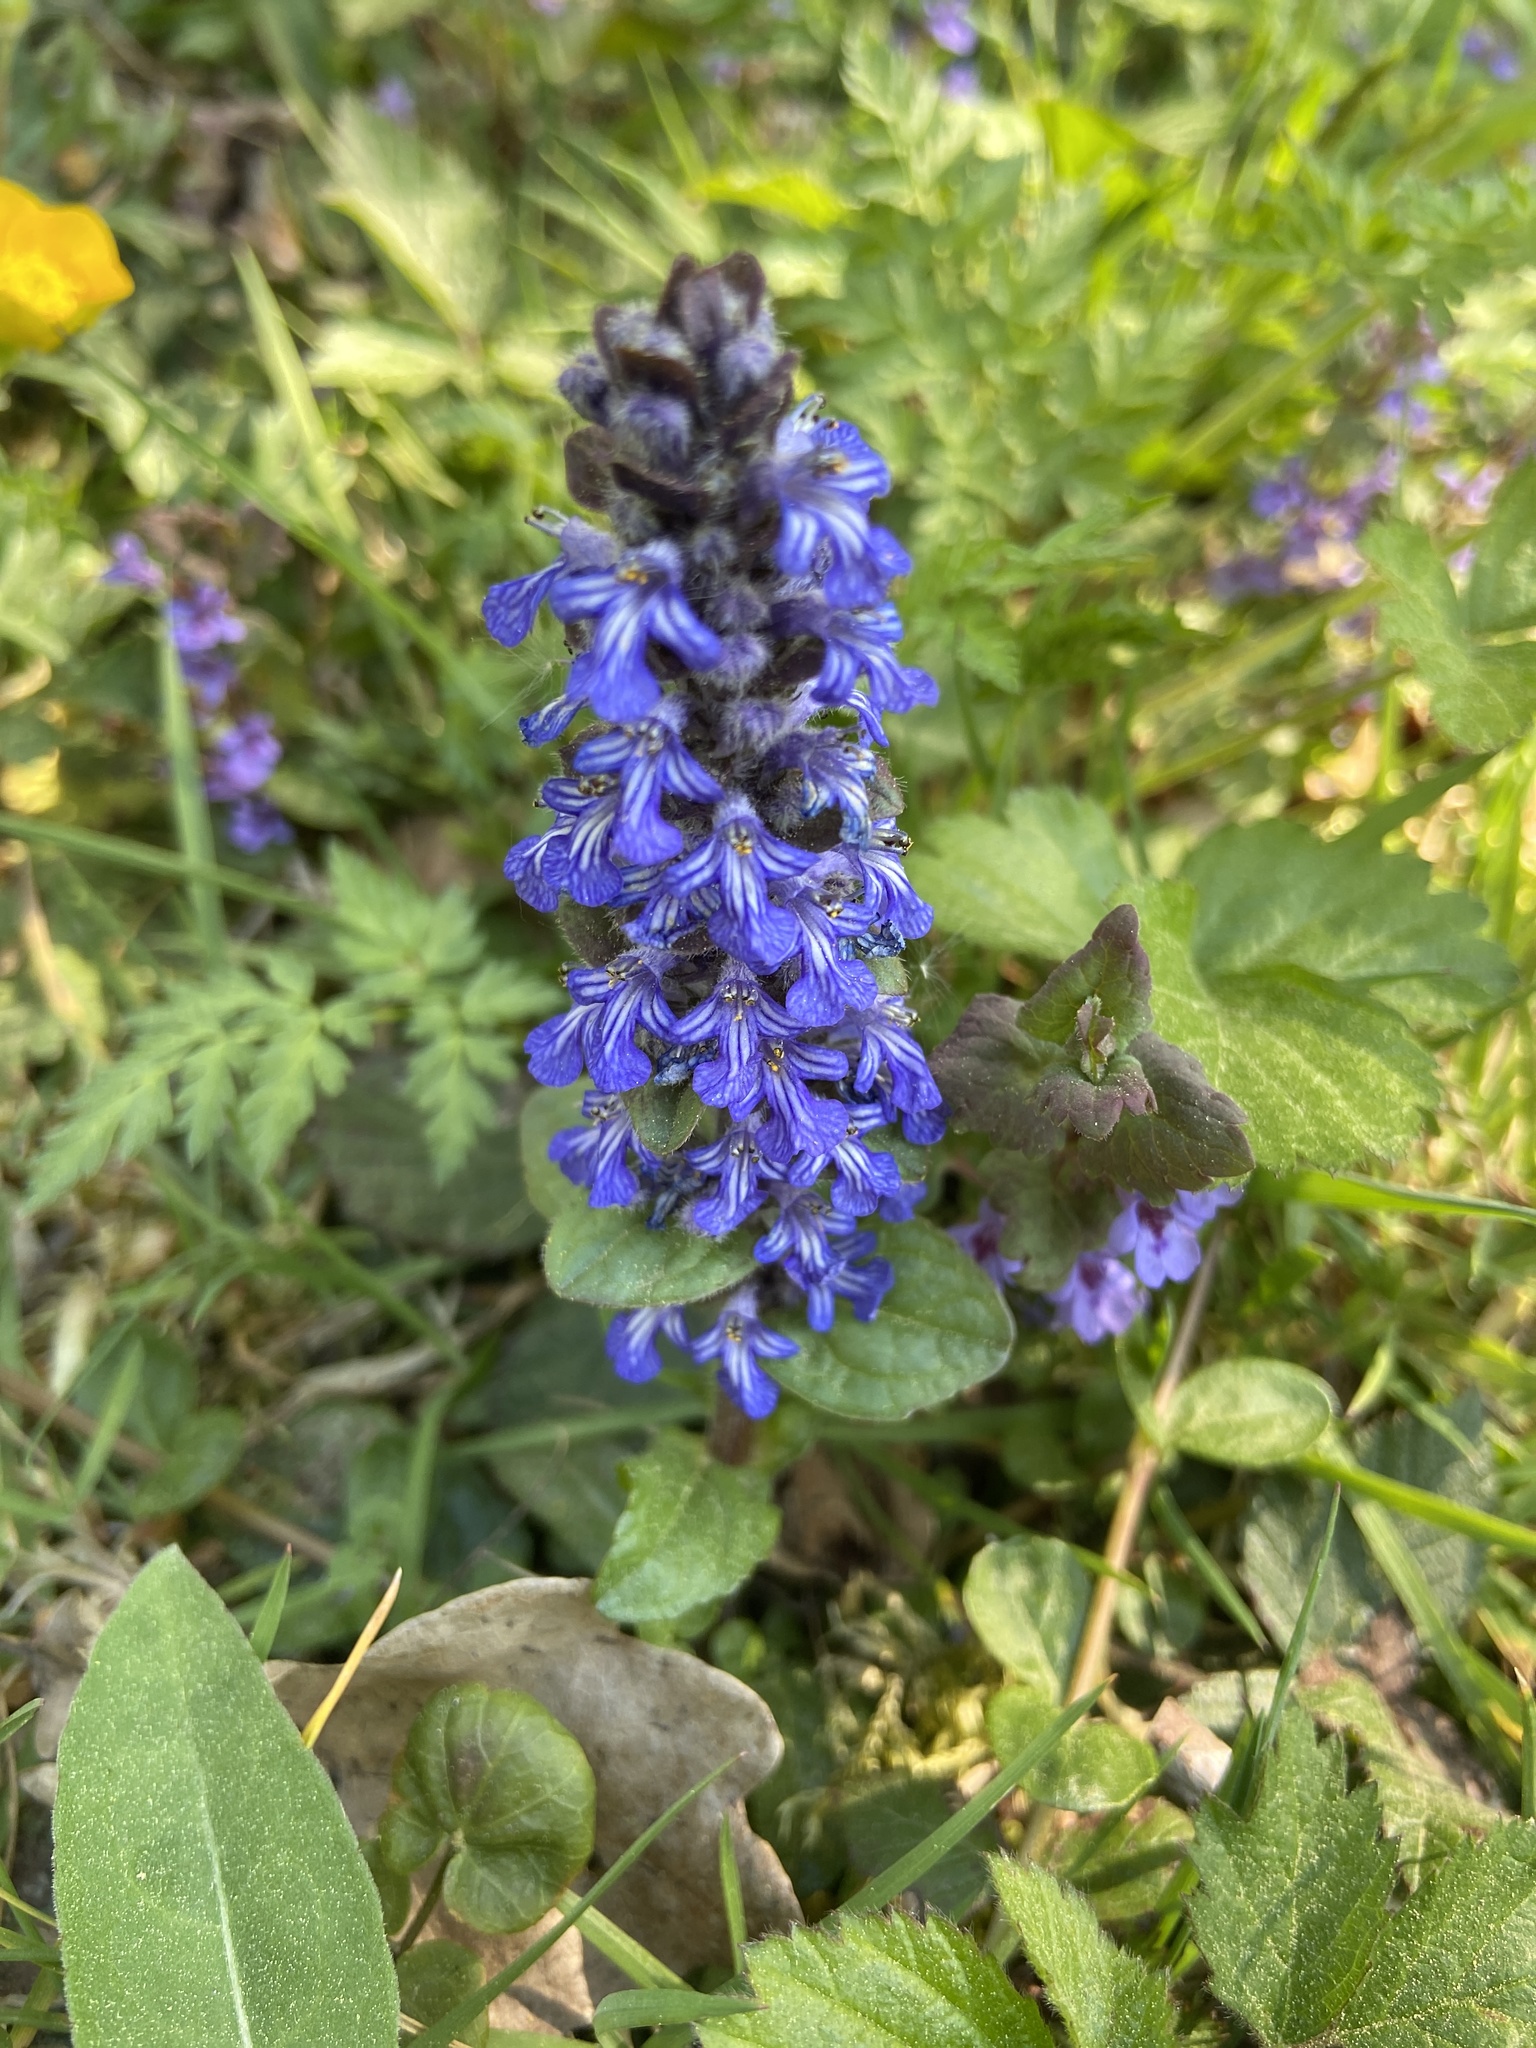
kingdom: Plantae
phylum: Tracheophyta
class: Magnoliopsida
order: Lamiales
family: Lamiaceae
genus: Ajuga
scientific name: Ajuga reptans
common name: Bugle
